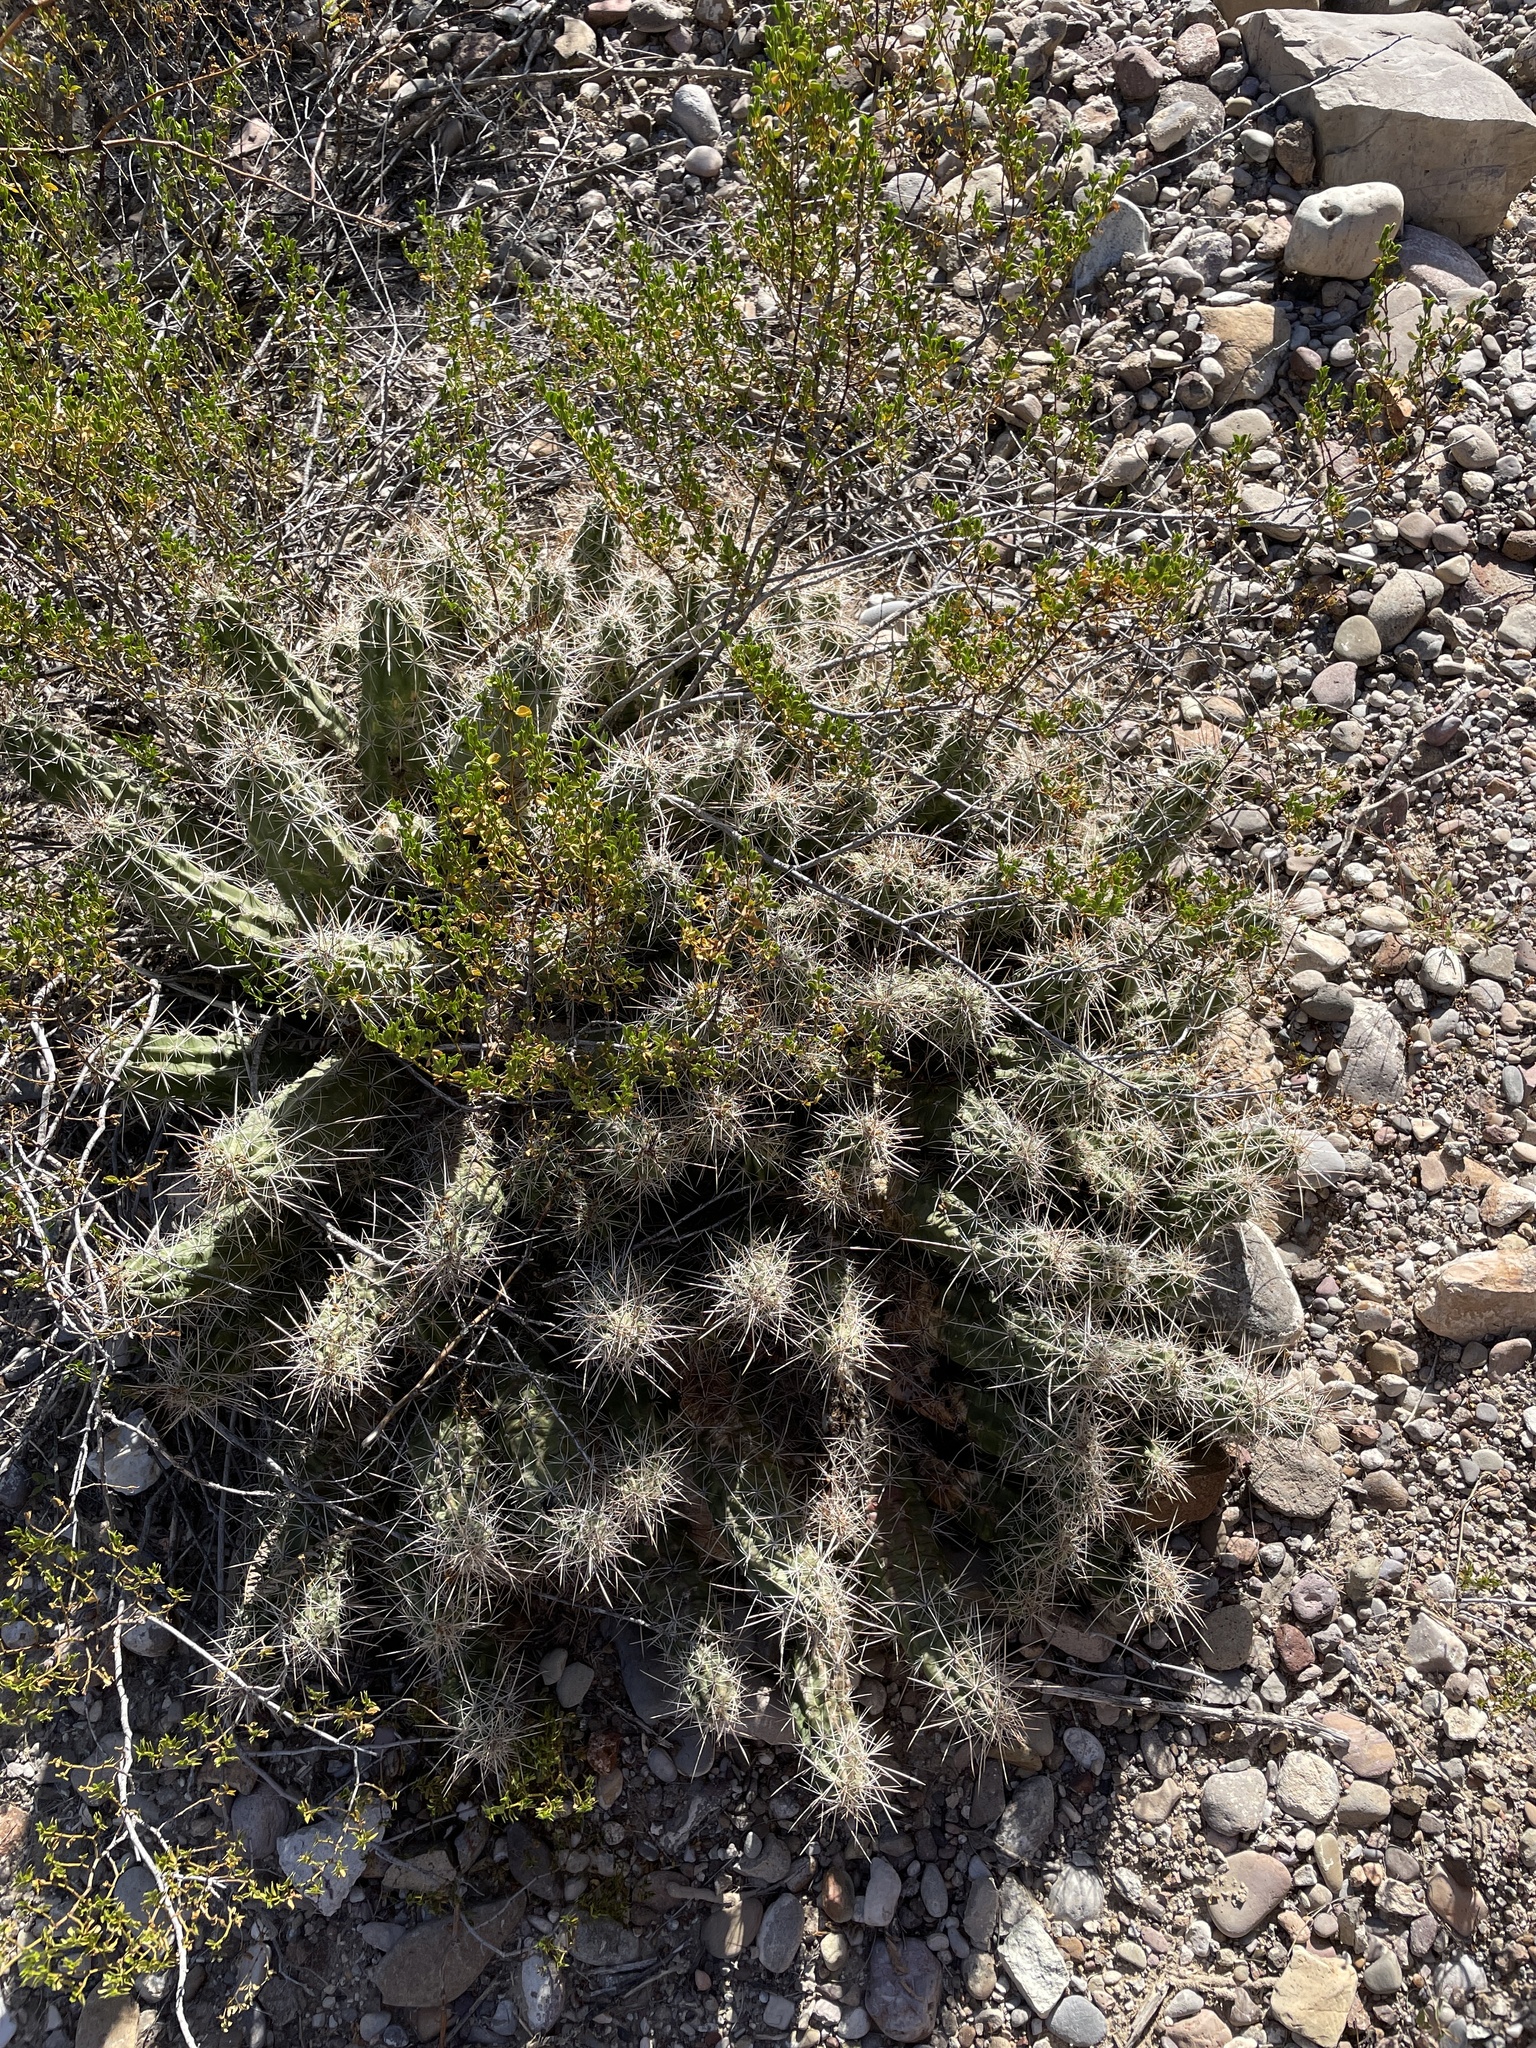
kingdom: Plantae
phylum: Tracheophyta
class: Magnoliopsida
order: Caryophyllales
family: Cactaceae
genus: Echinocereus
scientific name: Echinocereus enneacanthus
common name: Pitaya
